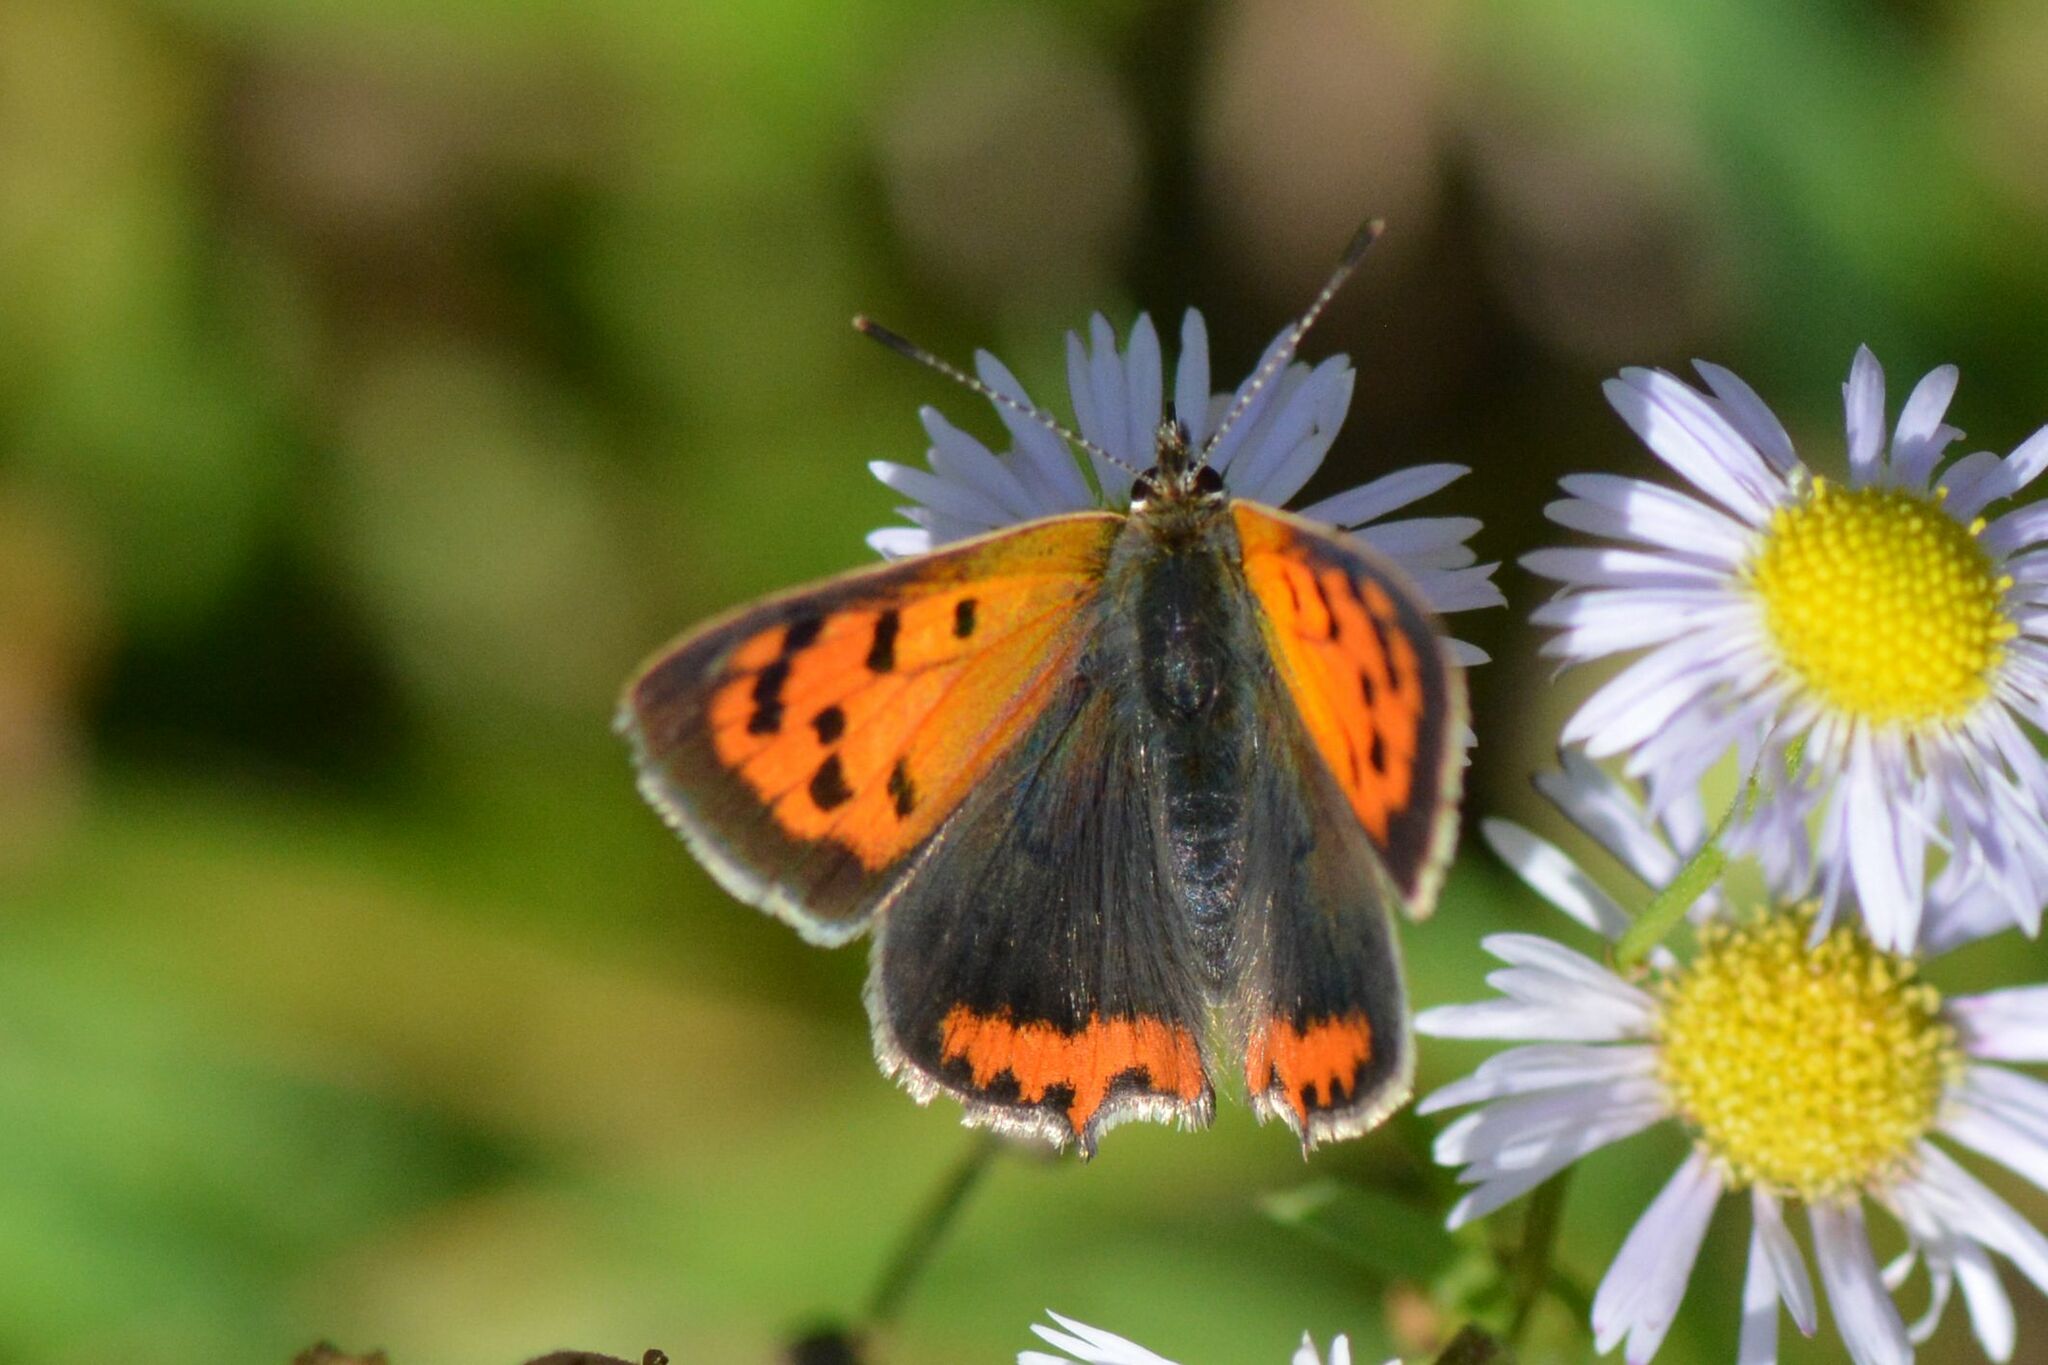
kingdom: Animalia
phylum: Arthropoda
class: Insecta
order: Lepidoptera
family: Lycaenidae
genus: Lycaena
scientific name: Lycaena phlaeas
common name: Small copper
